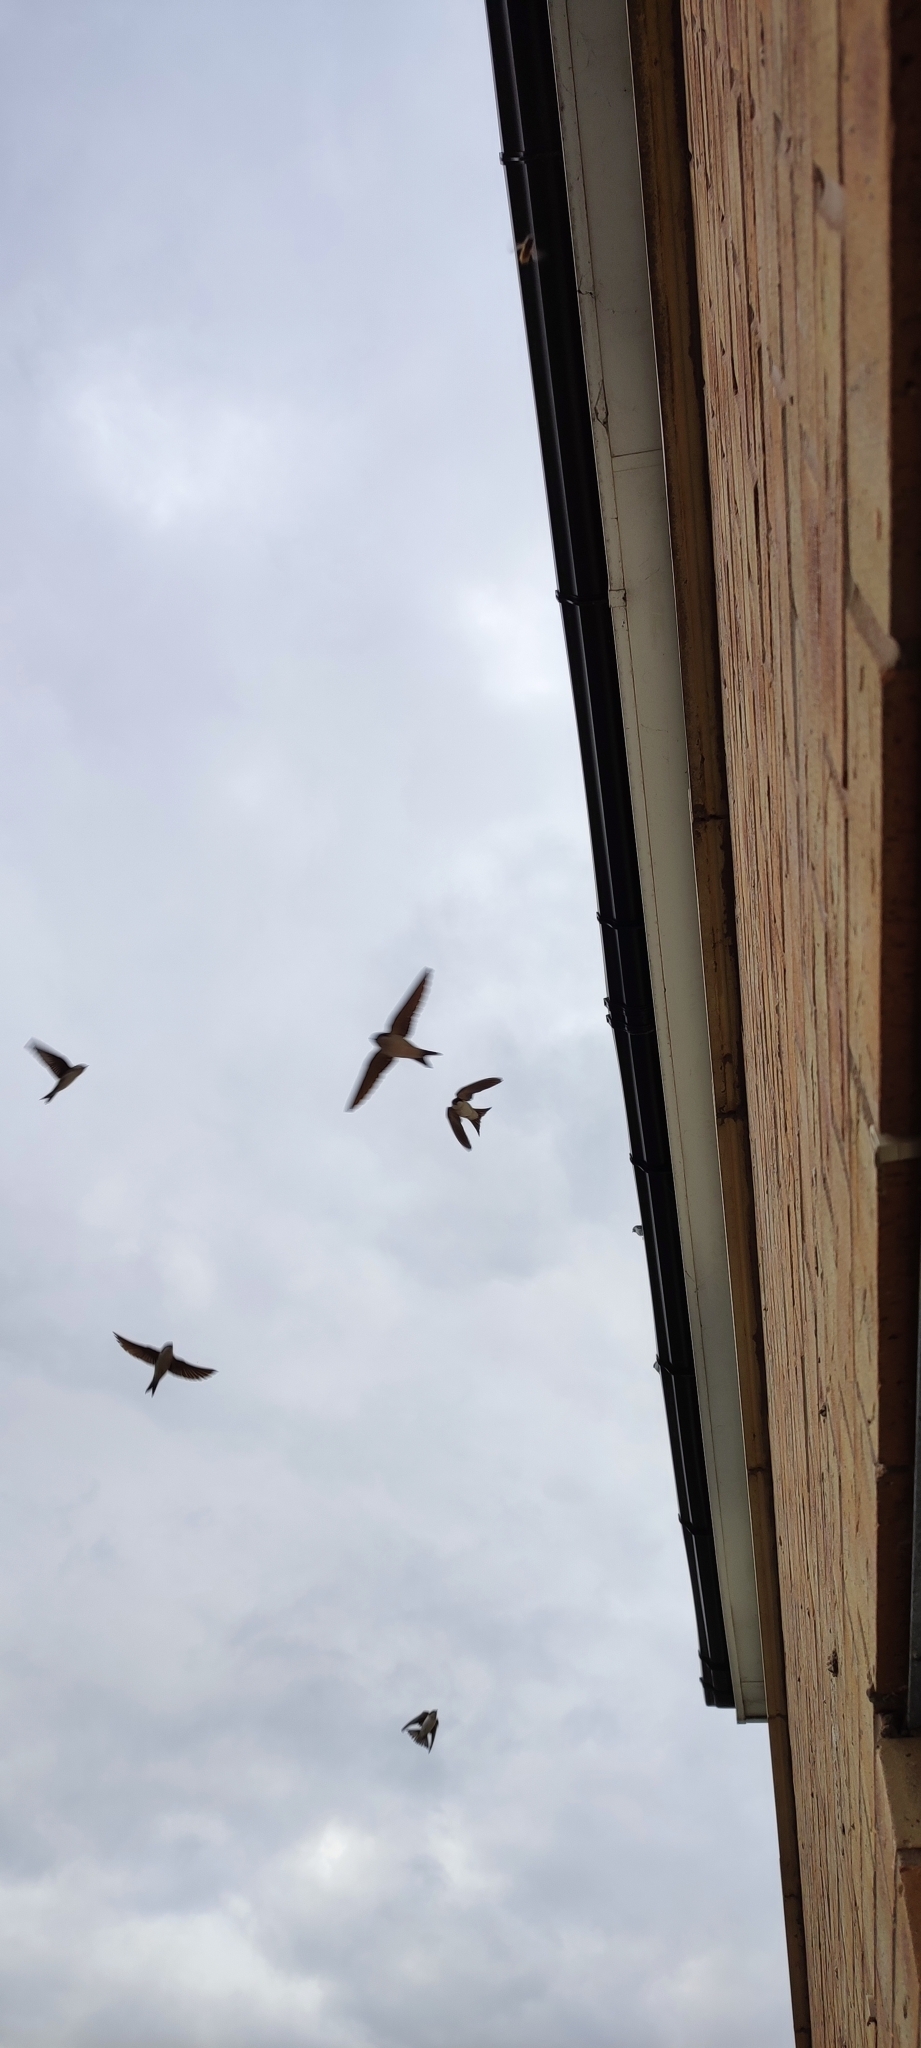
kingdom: Animalia
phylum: Chordata
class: Aves
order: Passeriformes
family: Hirundinidae
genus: Delichon
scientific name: Delichon urbicum
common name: Common house martin
